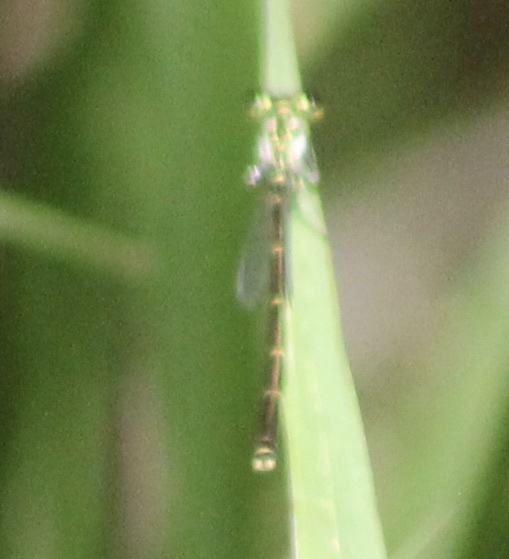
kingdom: Animalia
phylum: Arthropoda
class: Insecta
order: Odonata
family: Coenagrionidae
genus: Ischnura
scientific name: Ischnura posita
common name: Fragile forktail
